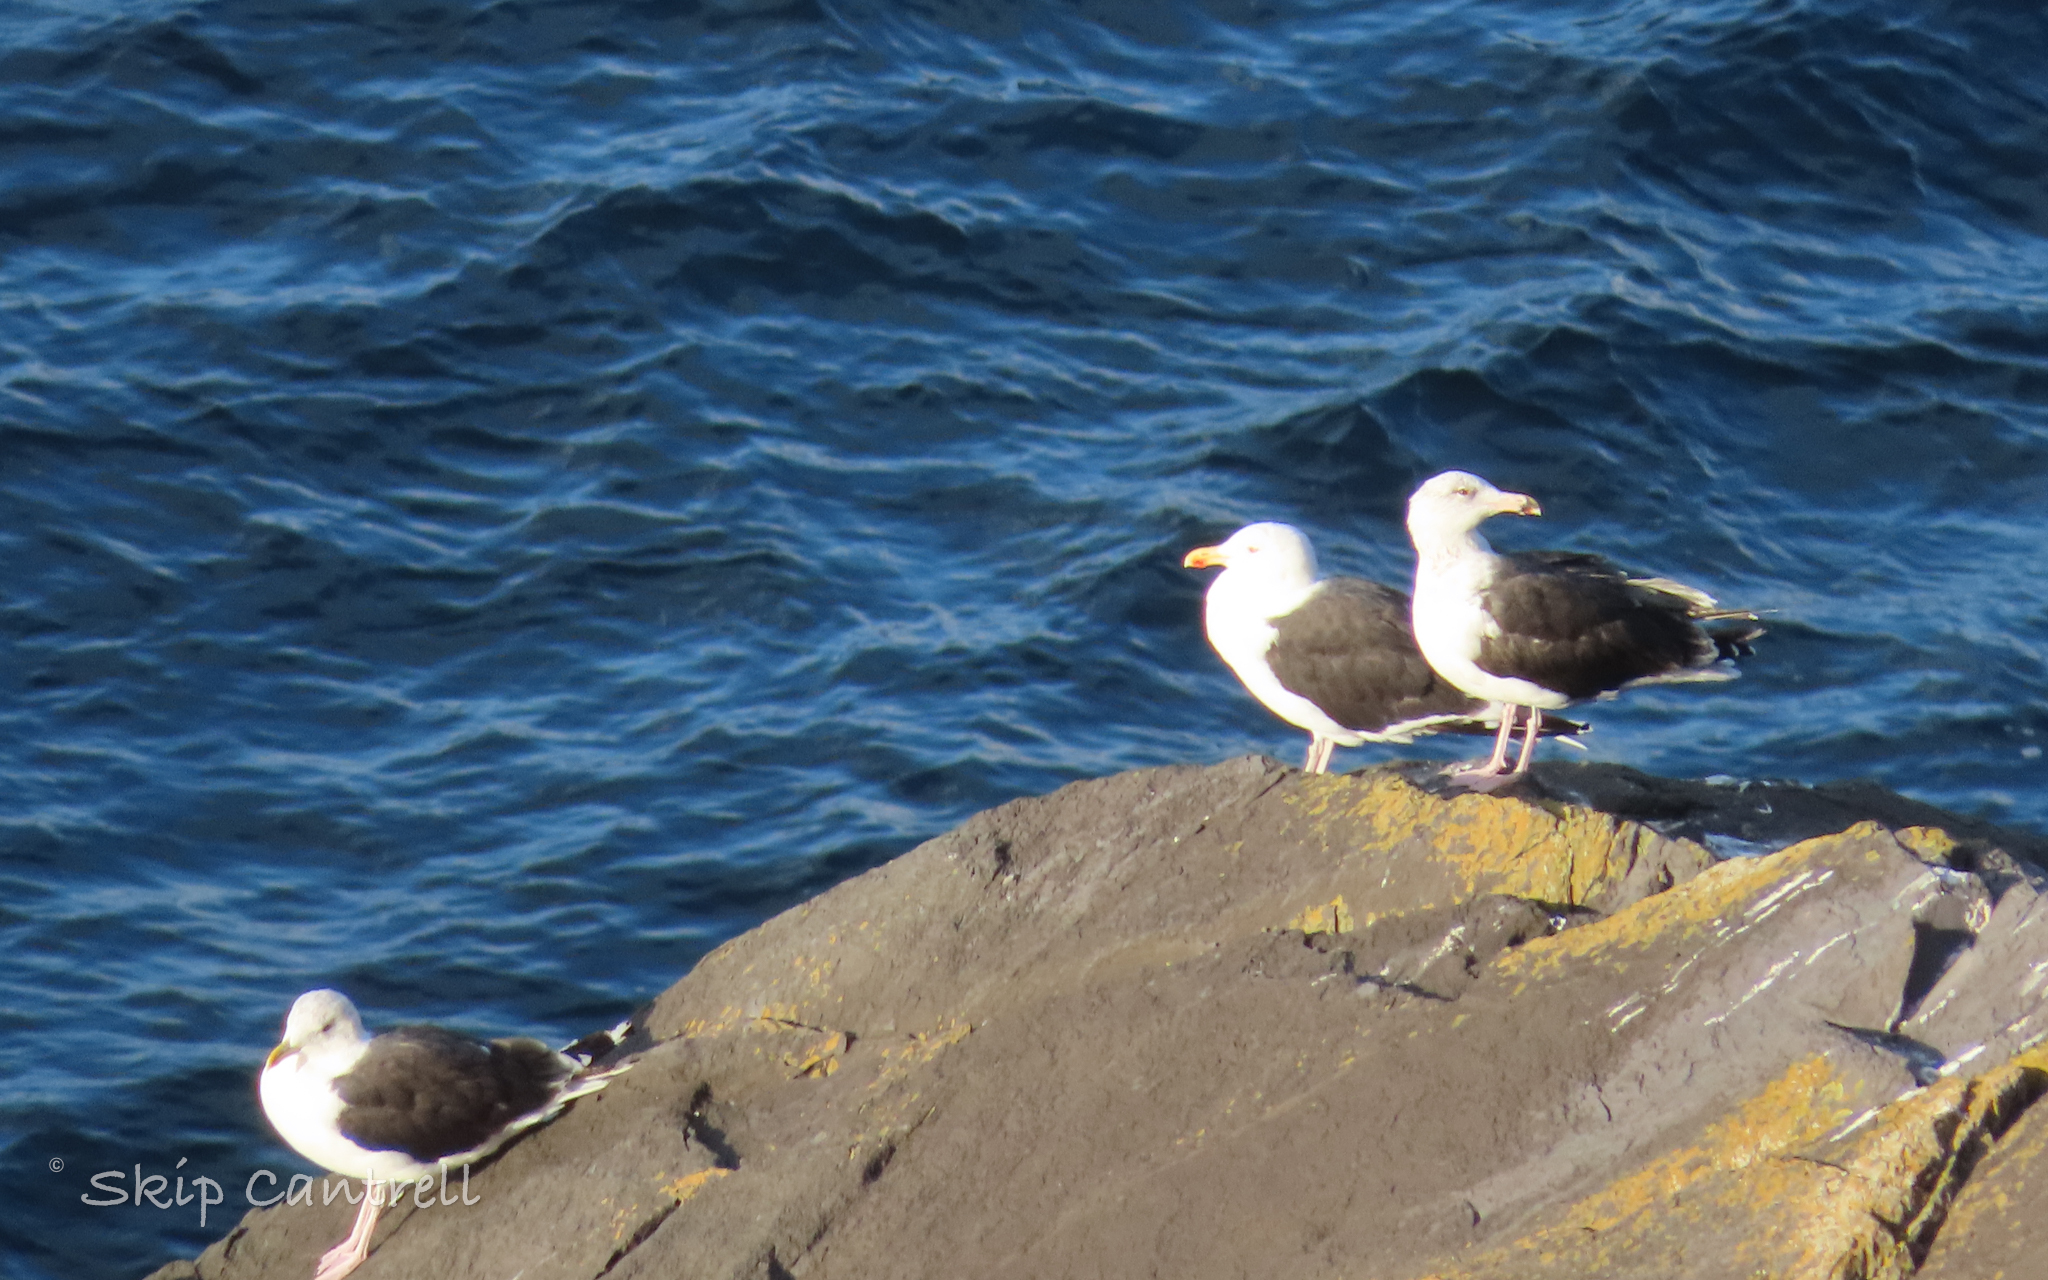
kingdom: Animalia
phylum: Chordata
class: Aves
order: Charadriiformes
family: Laridae
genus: Larus
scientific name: Larus marinus
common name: Great black-backed gull
